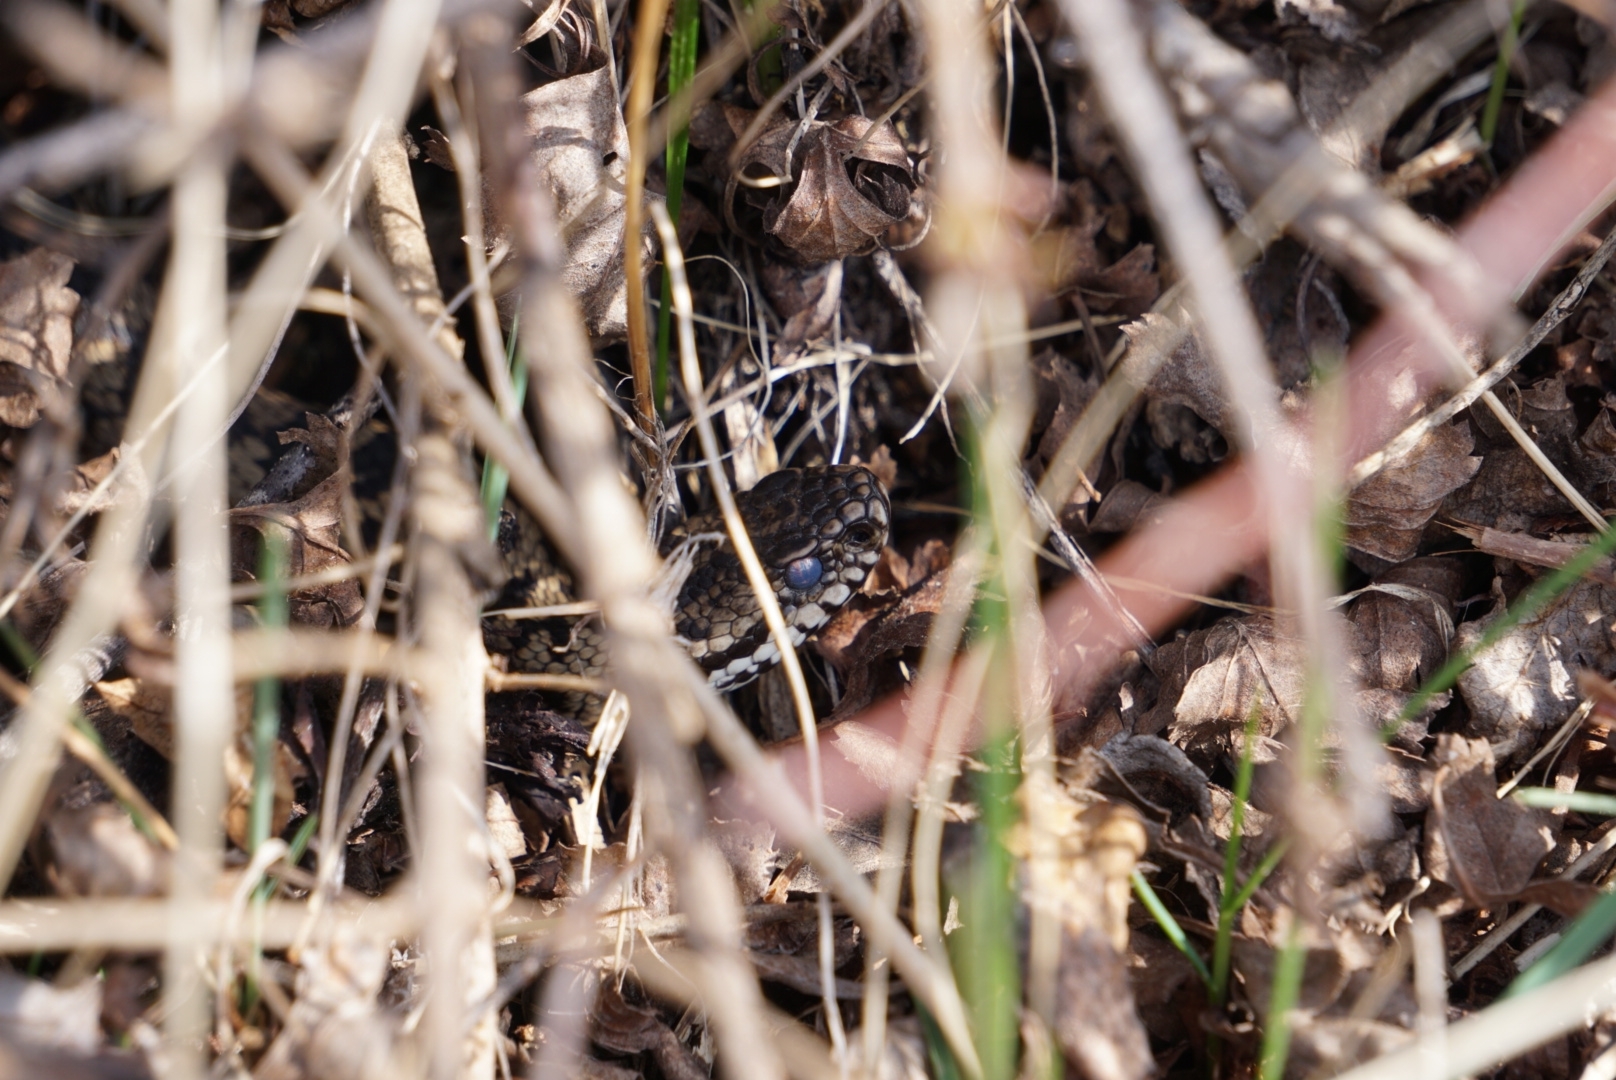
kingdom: Animalia
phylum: Chordata
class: Squamata
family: Viperidae
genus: Vipera
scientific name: Vipera berus
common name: Adder
